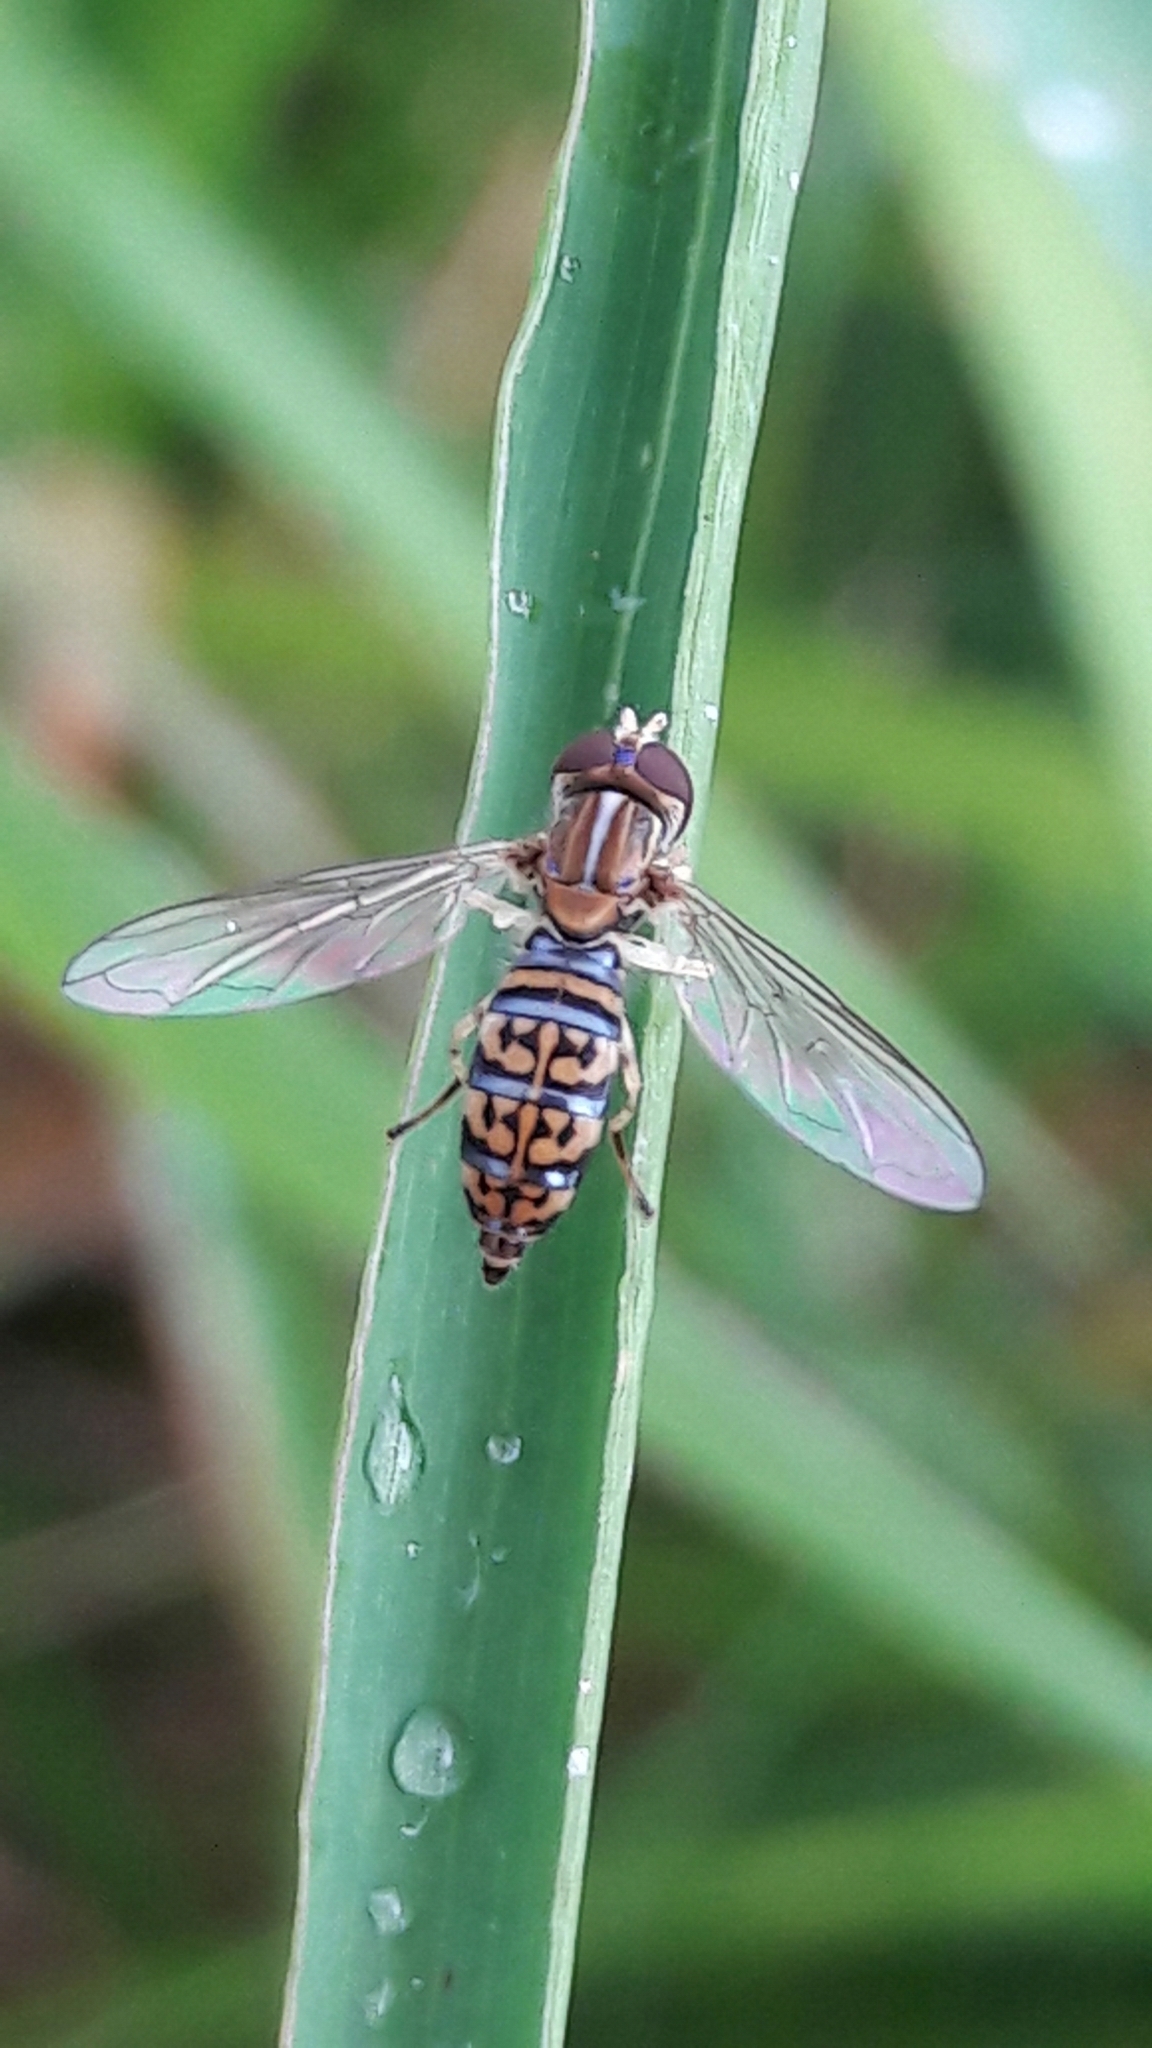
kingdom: Animalia
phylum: Arthropoda
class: Insecta
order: Diptera
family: Syrphidae
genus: Toxomerus
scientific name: Toxomerus
